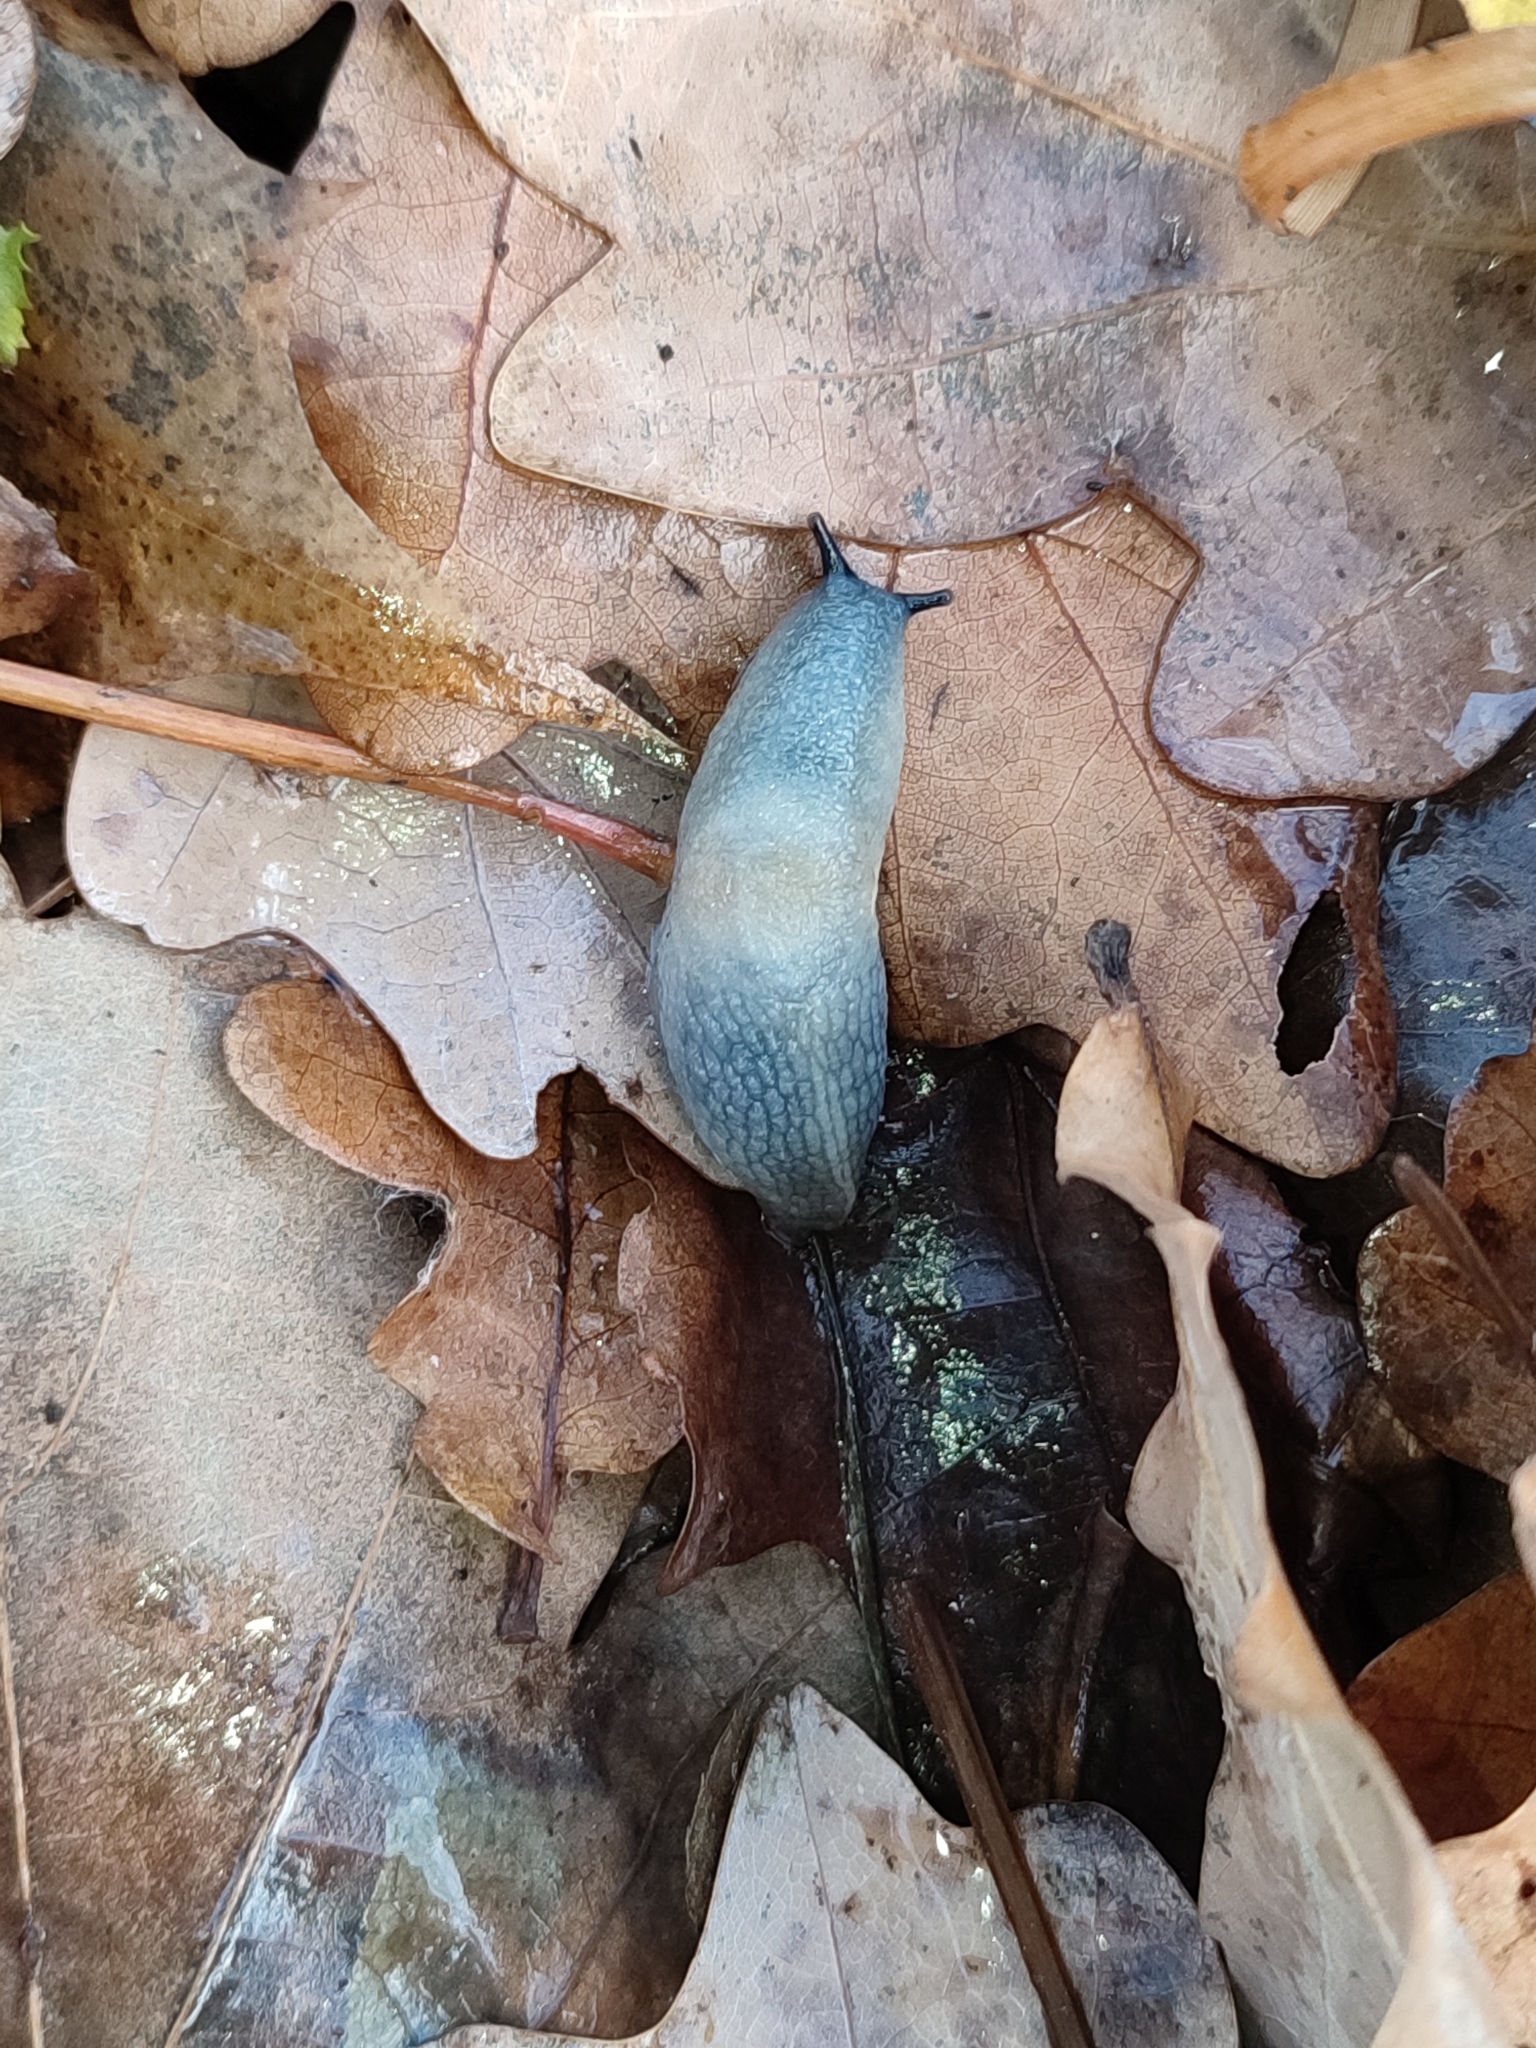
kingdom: Animalia
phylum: Mollusca
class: Gastropoda
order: Stylommatophora
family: Agriolimacidae
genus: Krynickillus
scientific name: Krynickillus melanocephalus
